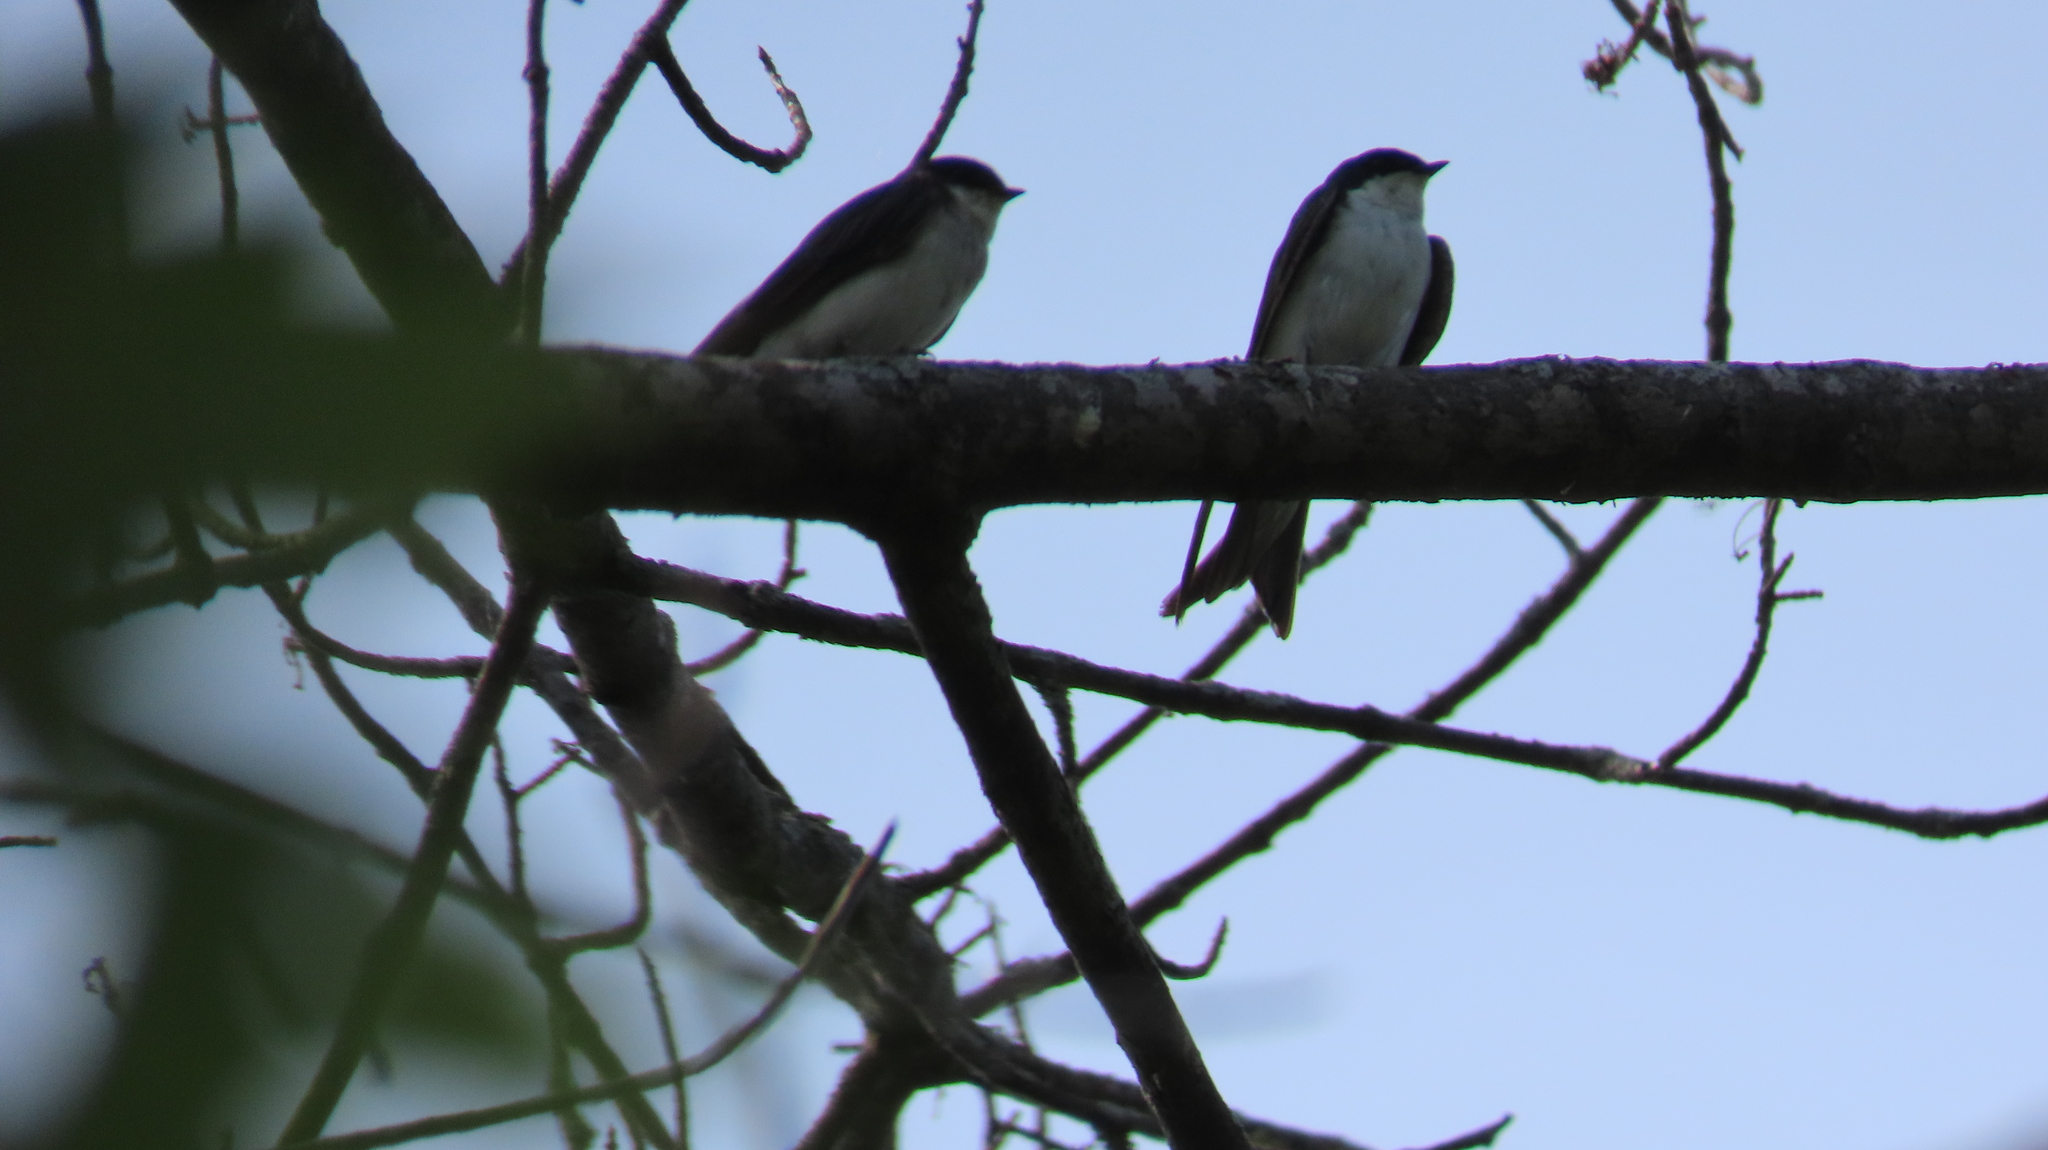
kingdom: Animalia
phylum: Chordata
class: Aves
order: Passeriformes
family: Hirundinidae
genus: Tachycineta
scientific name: Tachycineta bicolor
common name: Tree swallow
